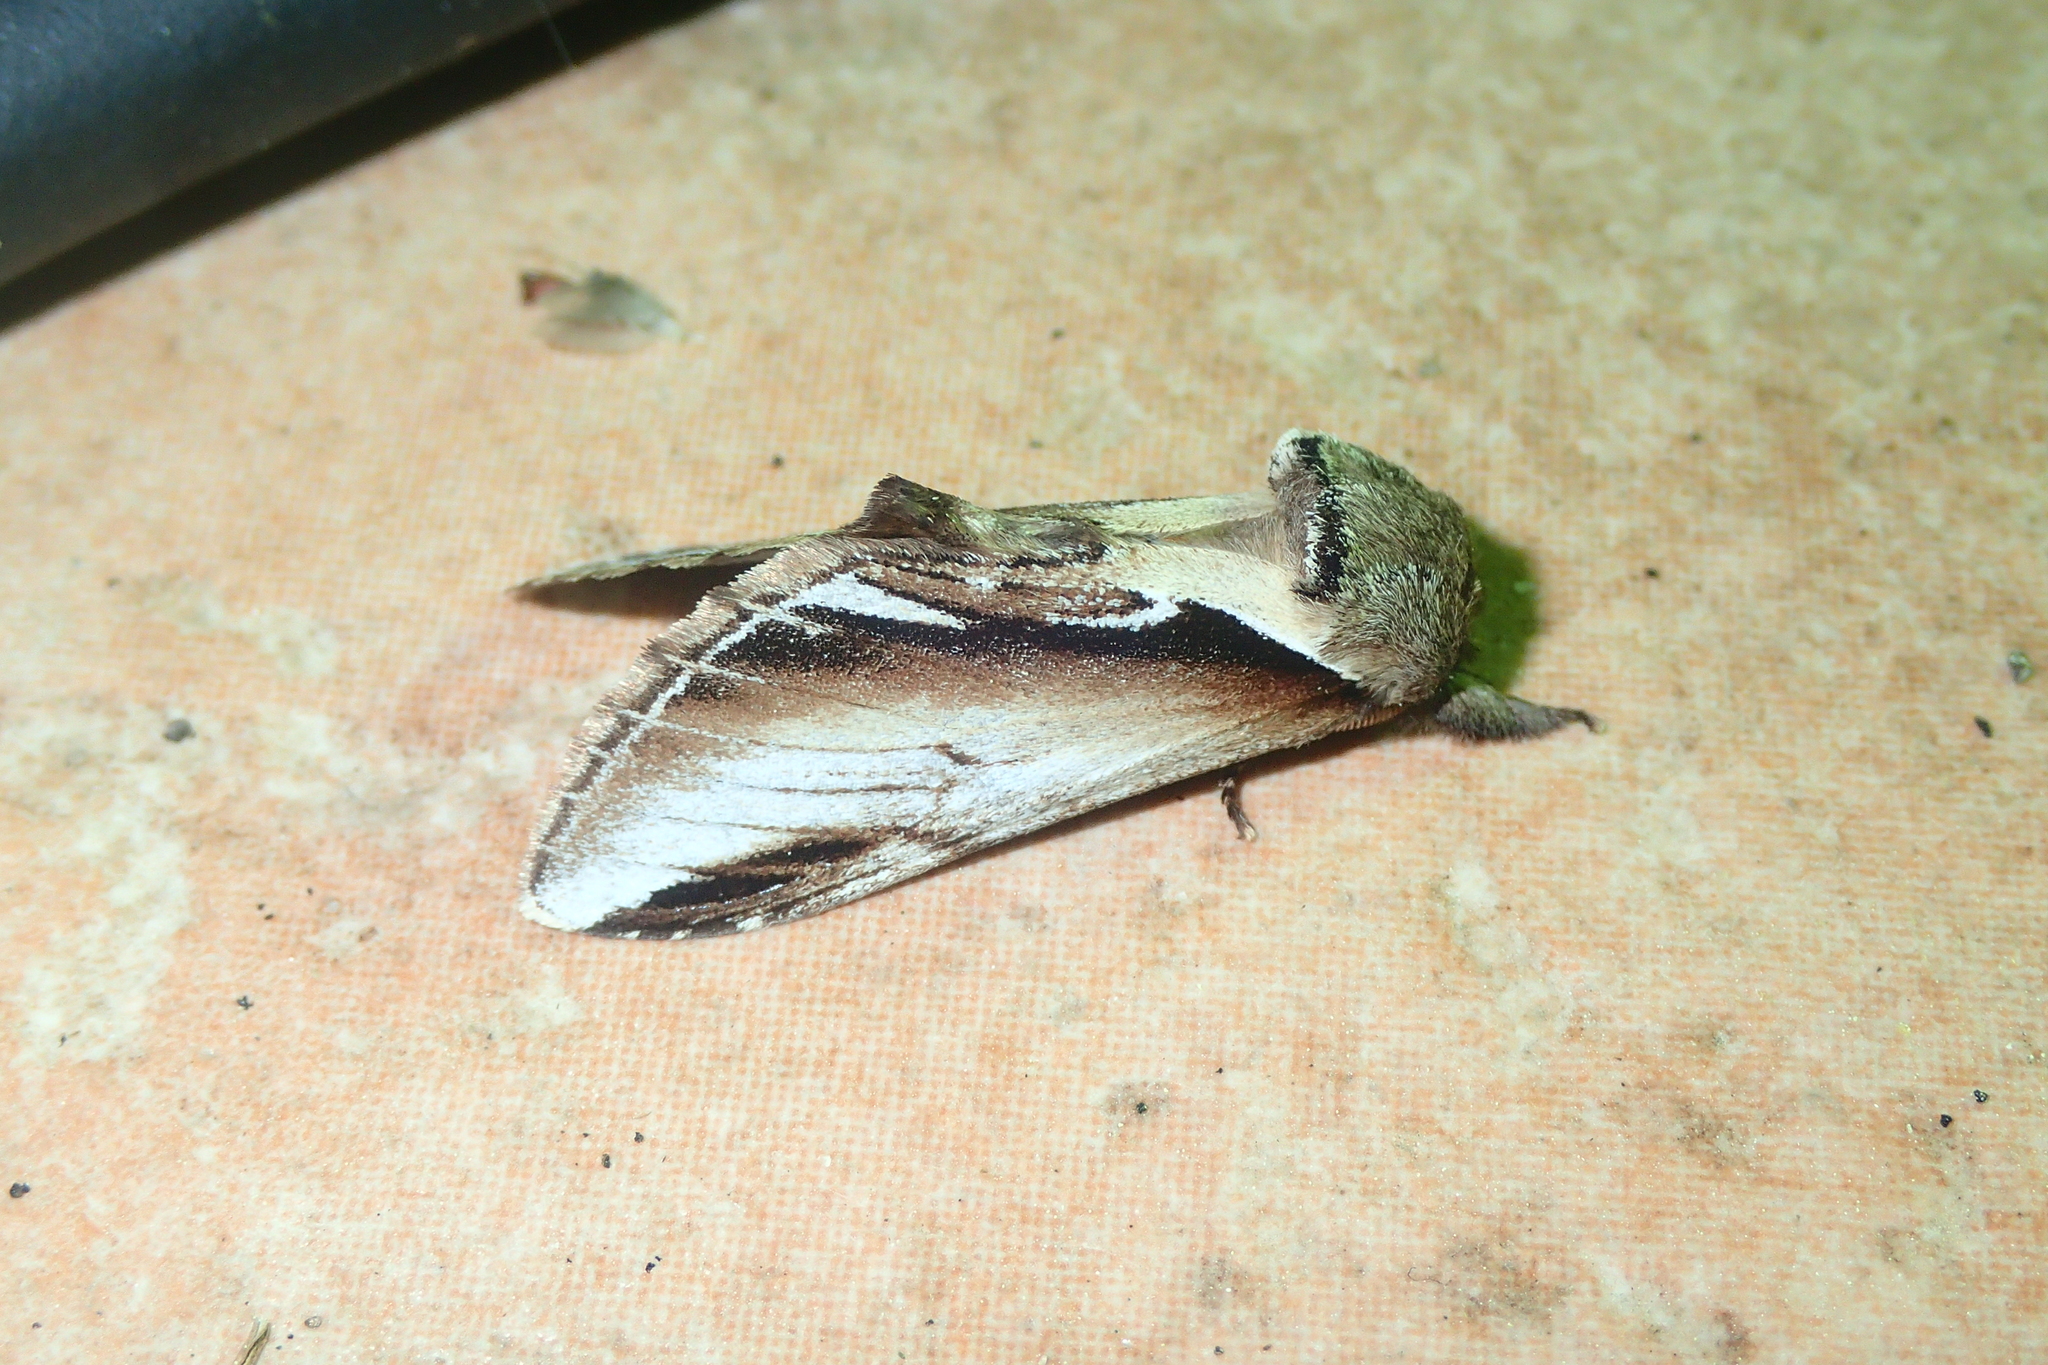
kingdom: Animalia
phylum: Arthropoda
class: Insecta
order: Lepidoptera
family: Notodontidae
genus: Pheosia
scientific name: Pheosia gnoma
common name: Lesser swallow prominent
